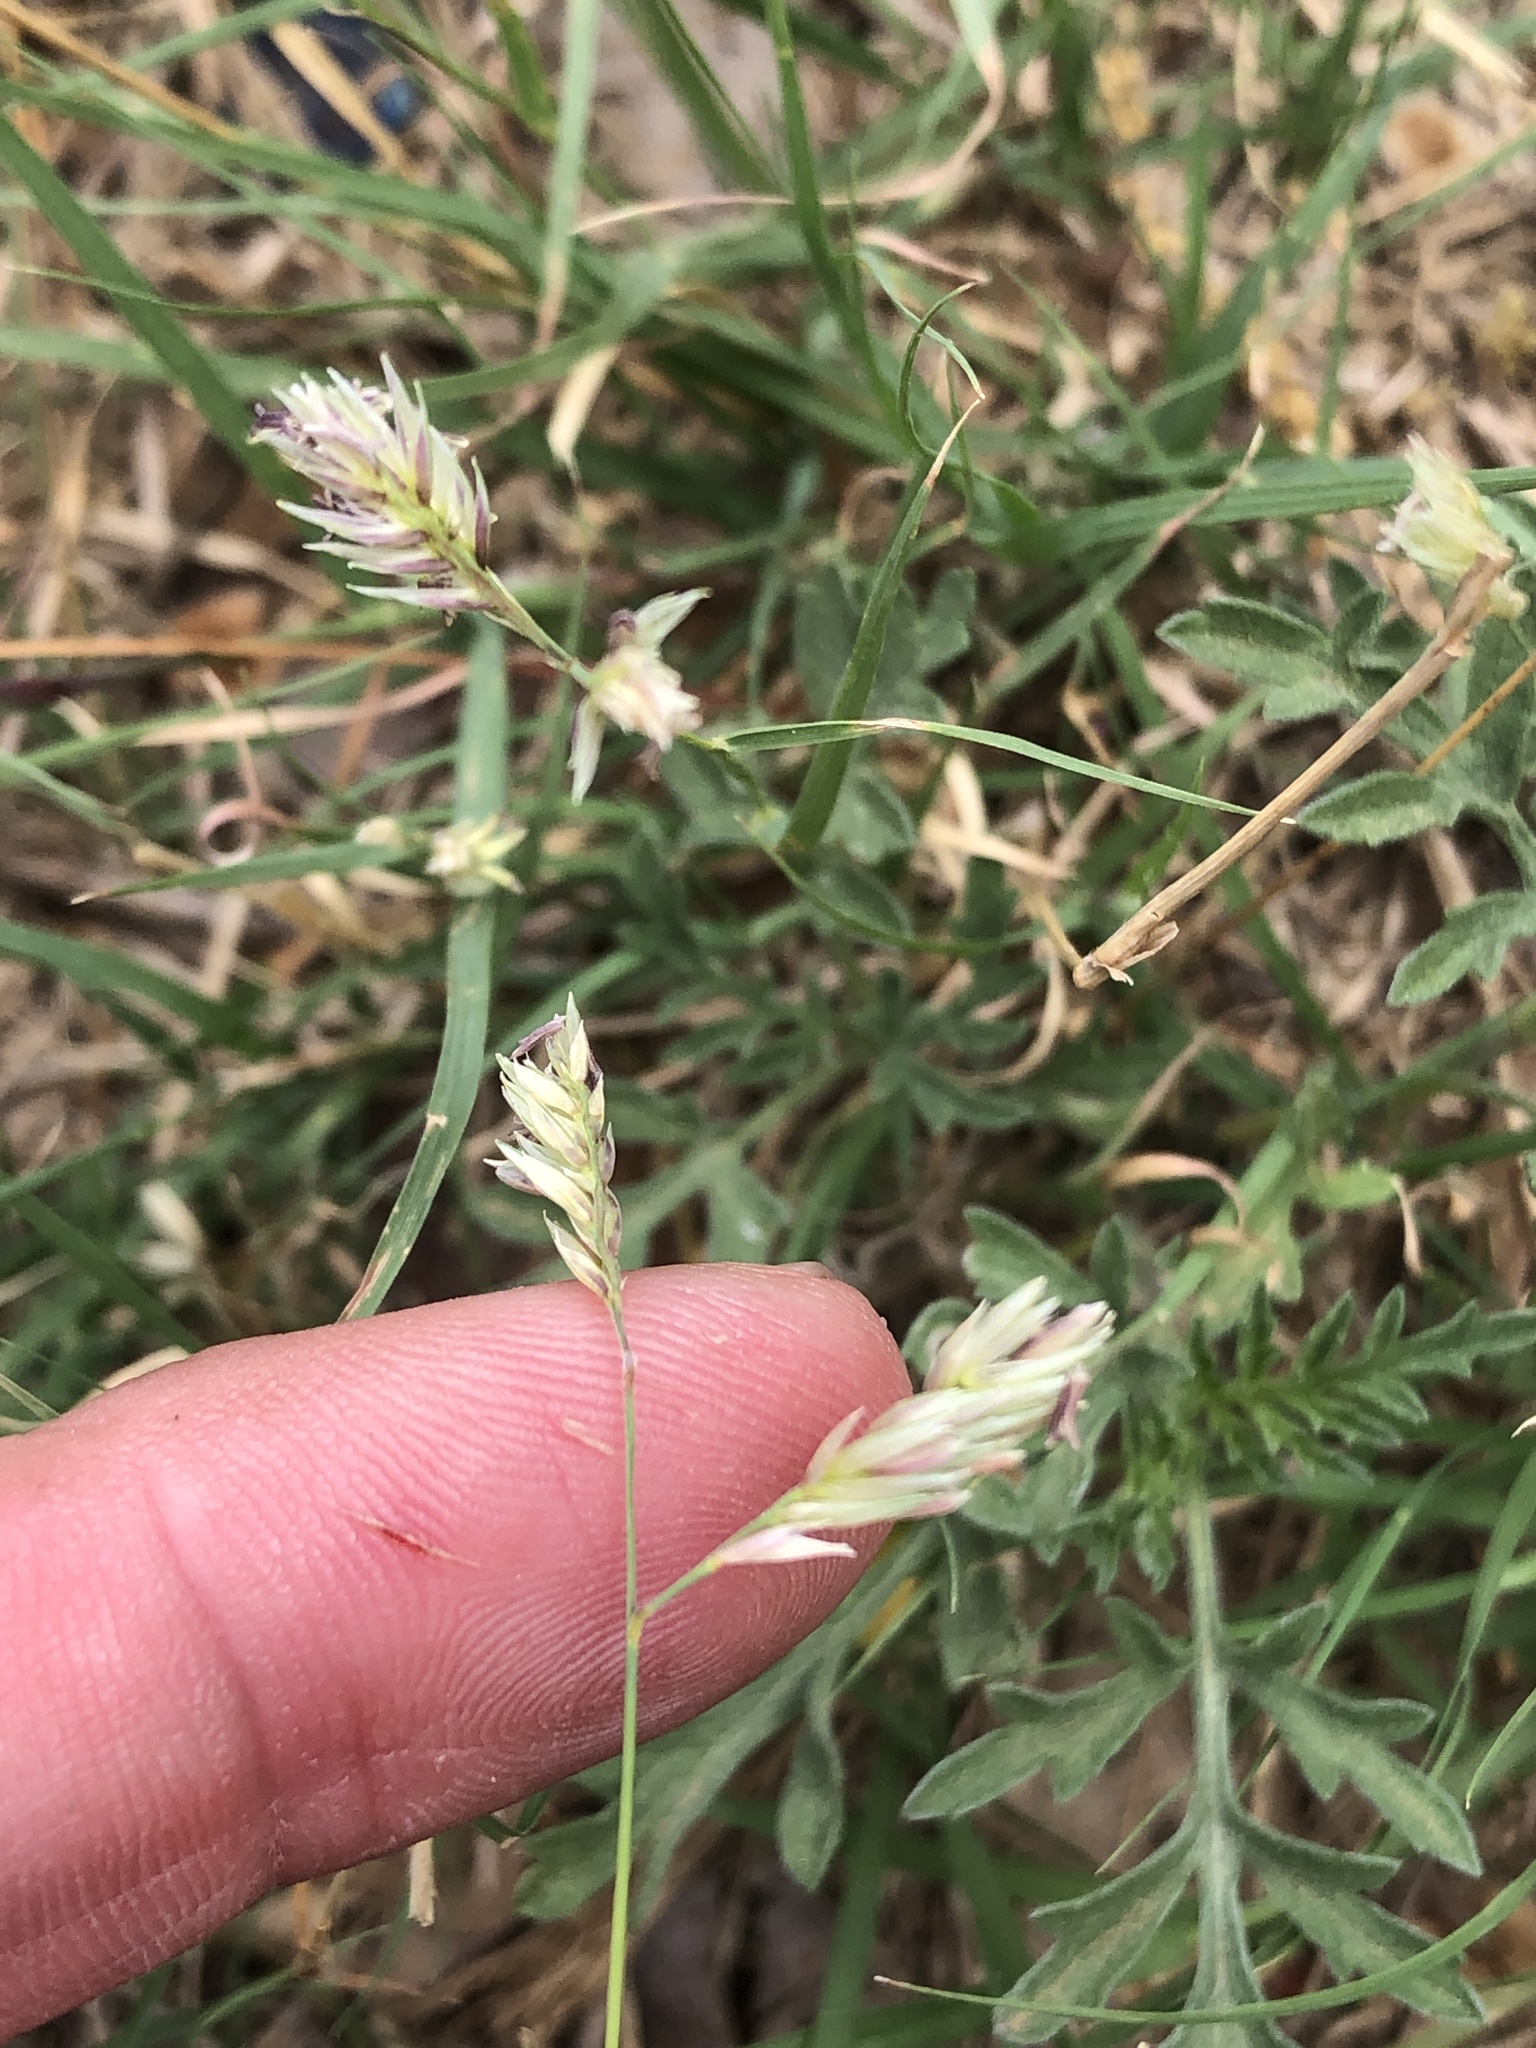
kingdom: Plantae
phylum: Tracheophyta
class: Liliopsida
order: Poales
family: Poaceae
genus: Bouteloua
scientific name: Bouteloua dactyloides
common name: Buffalo grass
